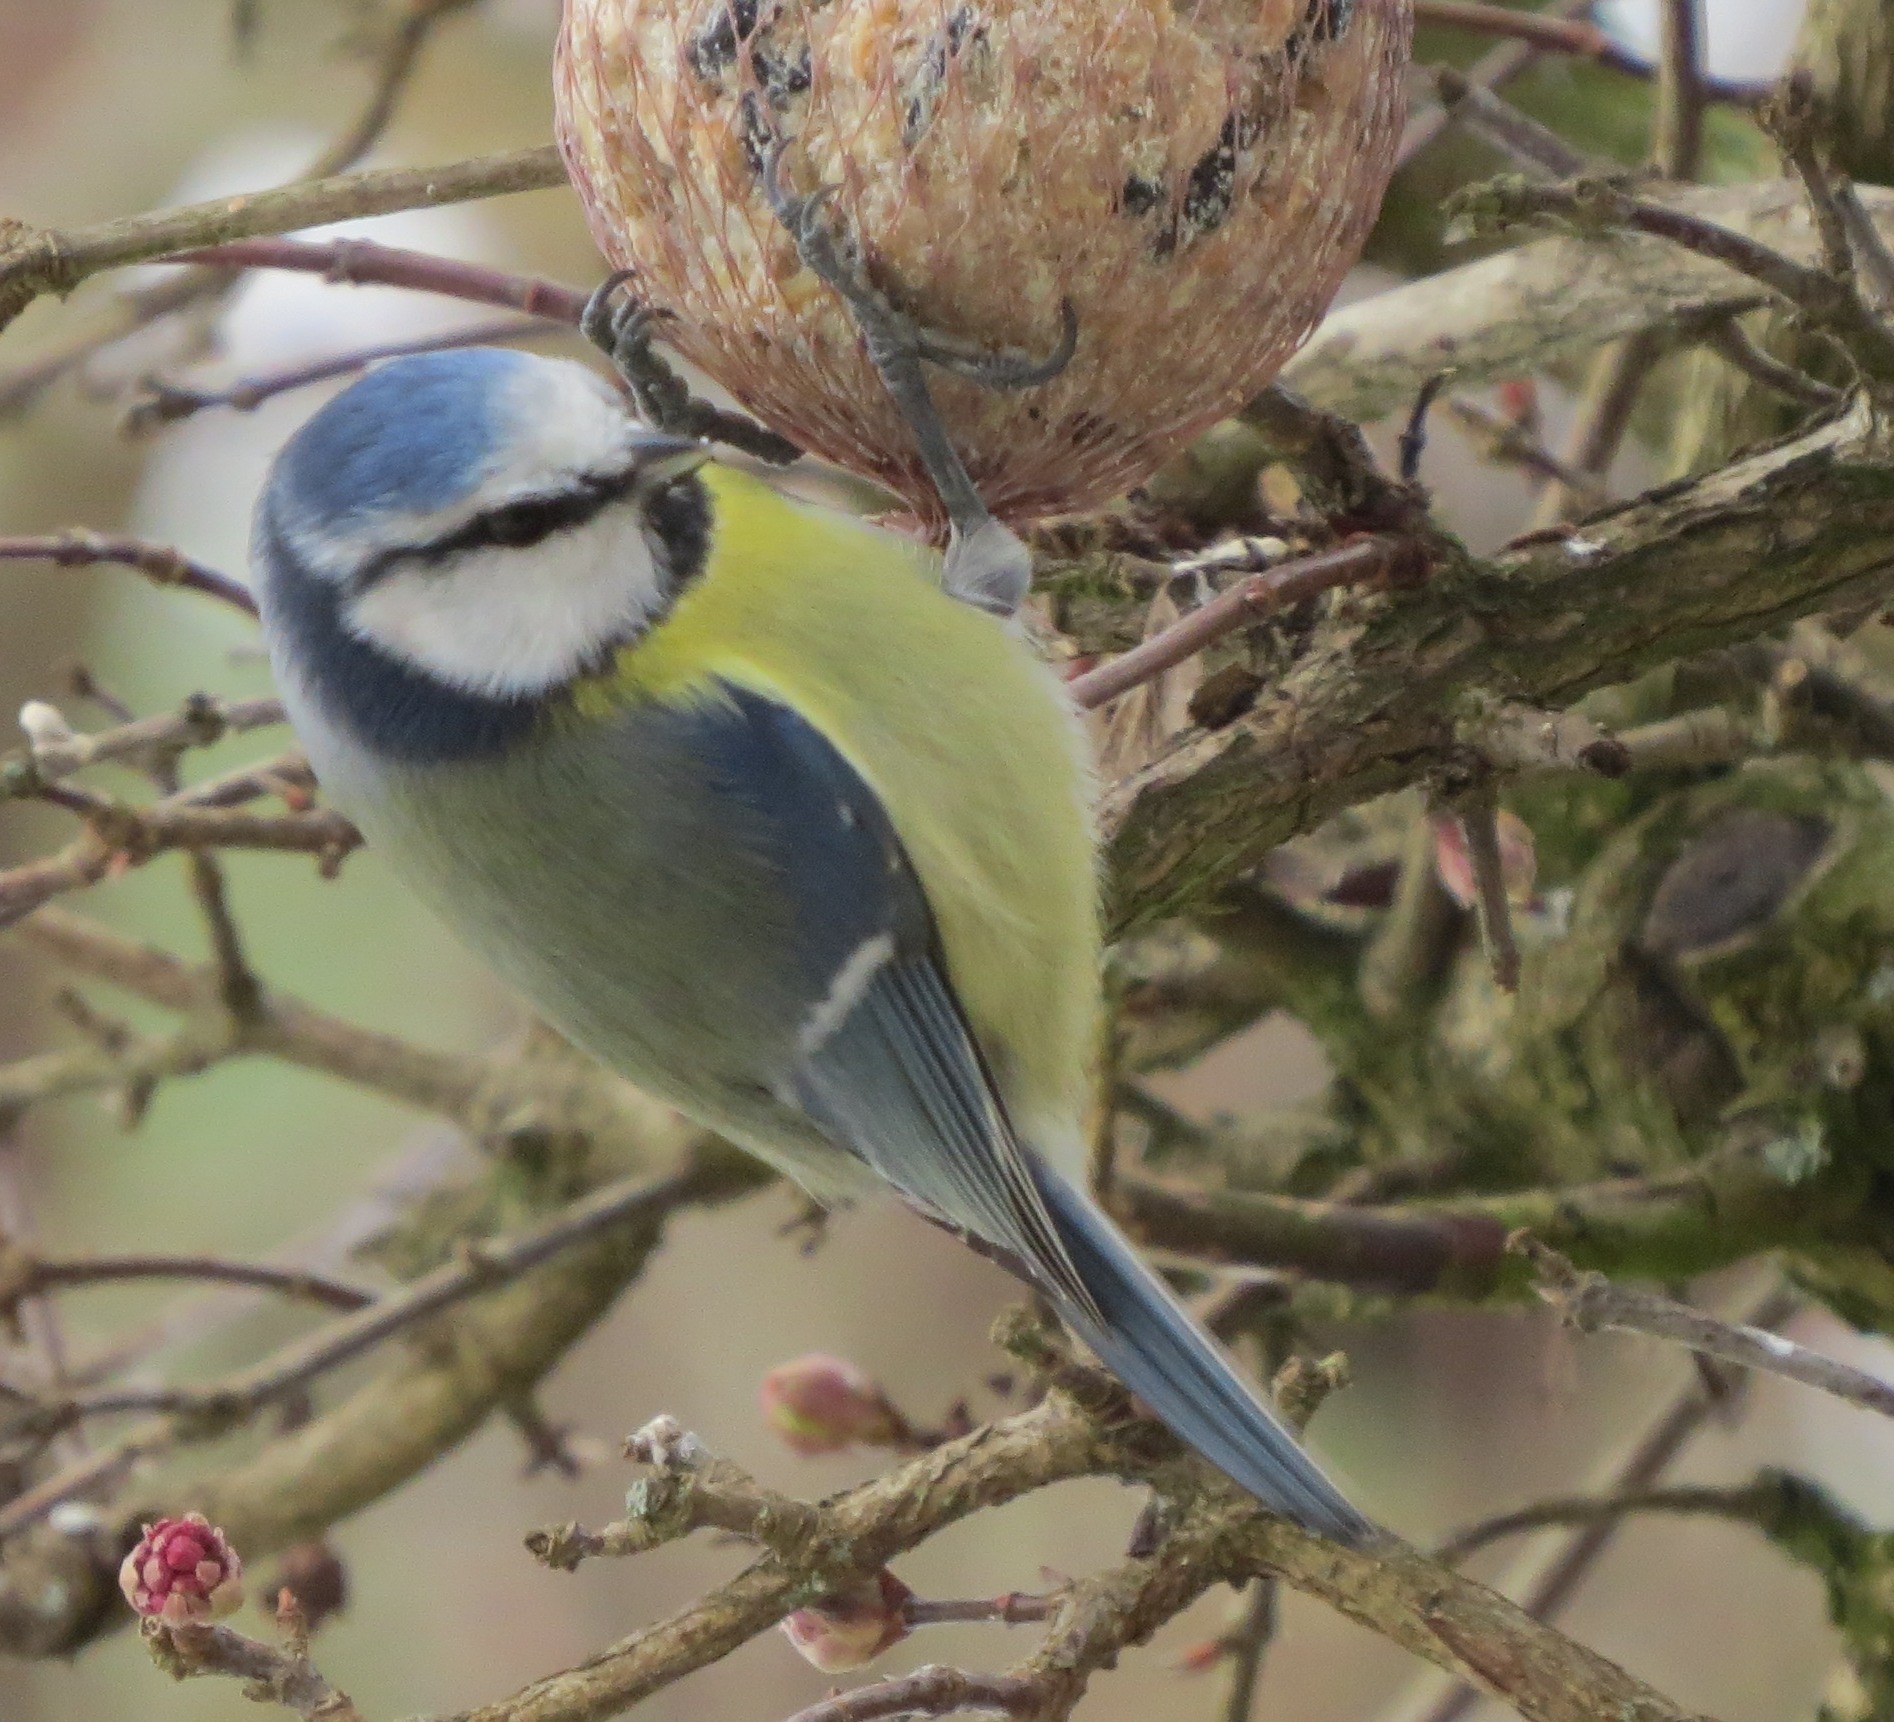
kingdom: Animalia
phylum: Chordata
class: Aves
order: Passeriformes
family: Paridae
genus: Cyanistes
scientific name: Cyanistes caeruleus
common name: Eurasian blue tit
